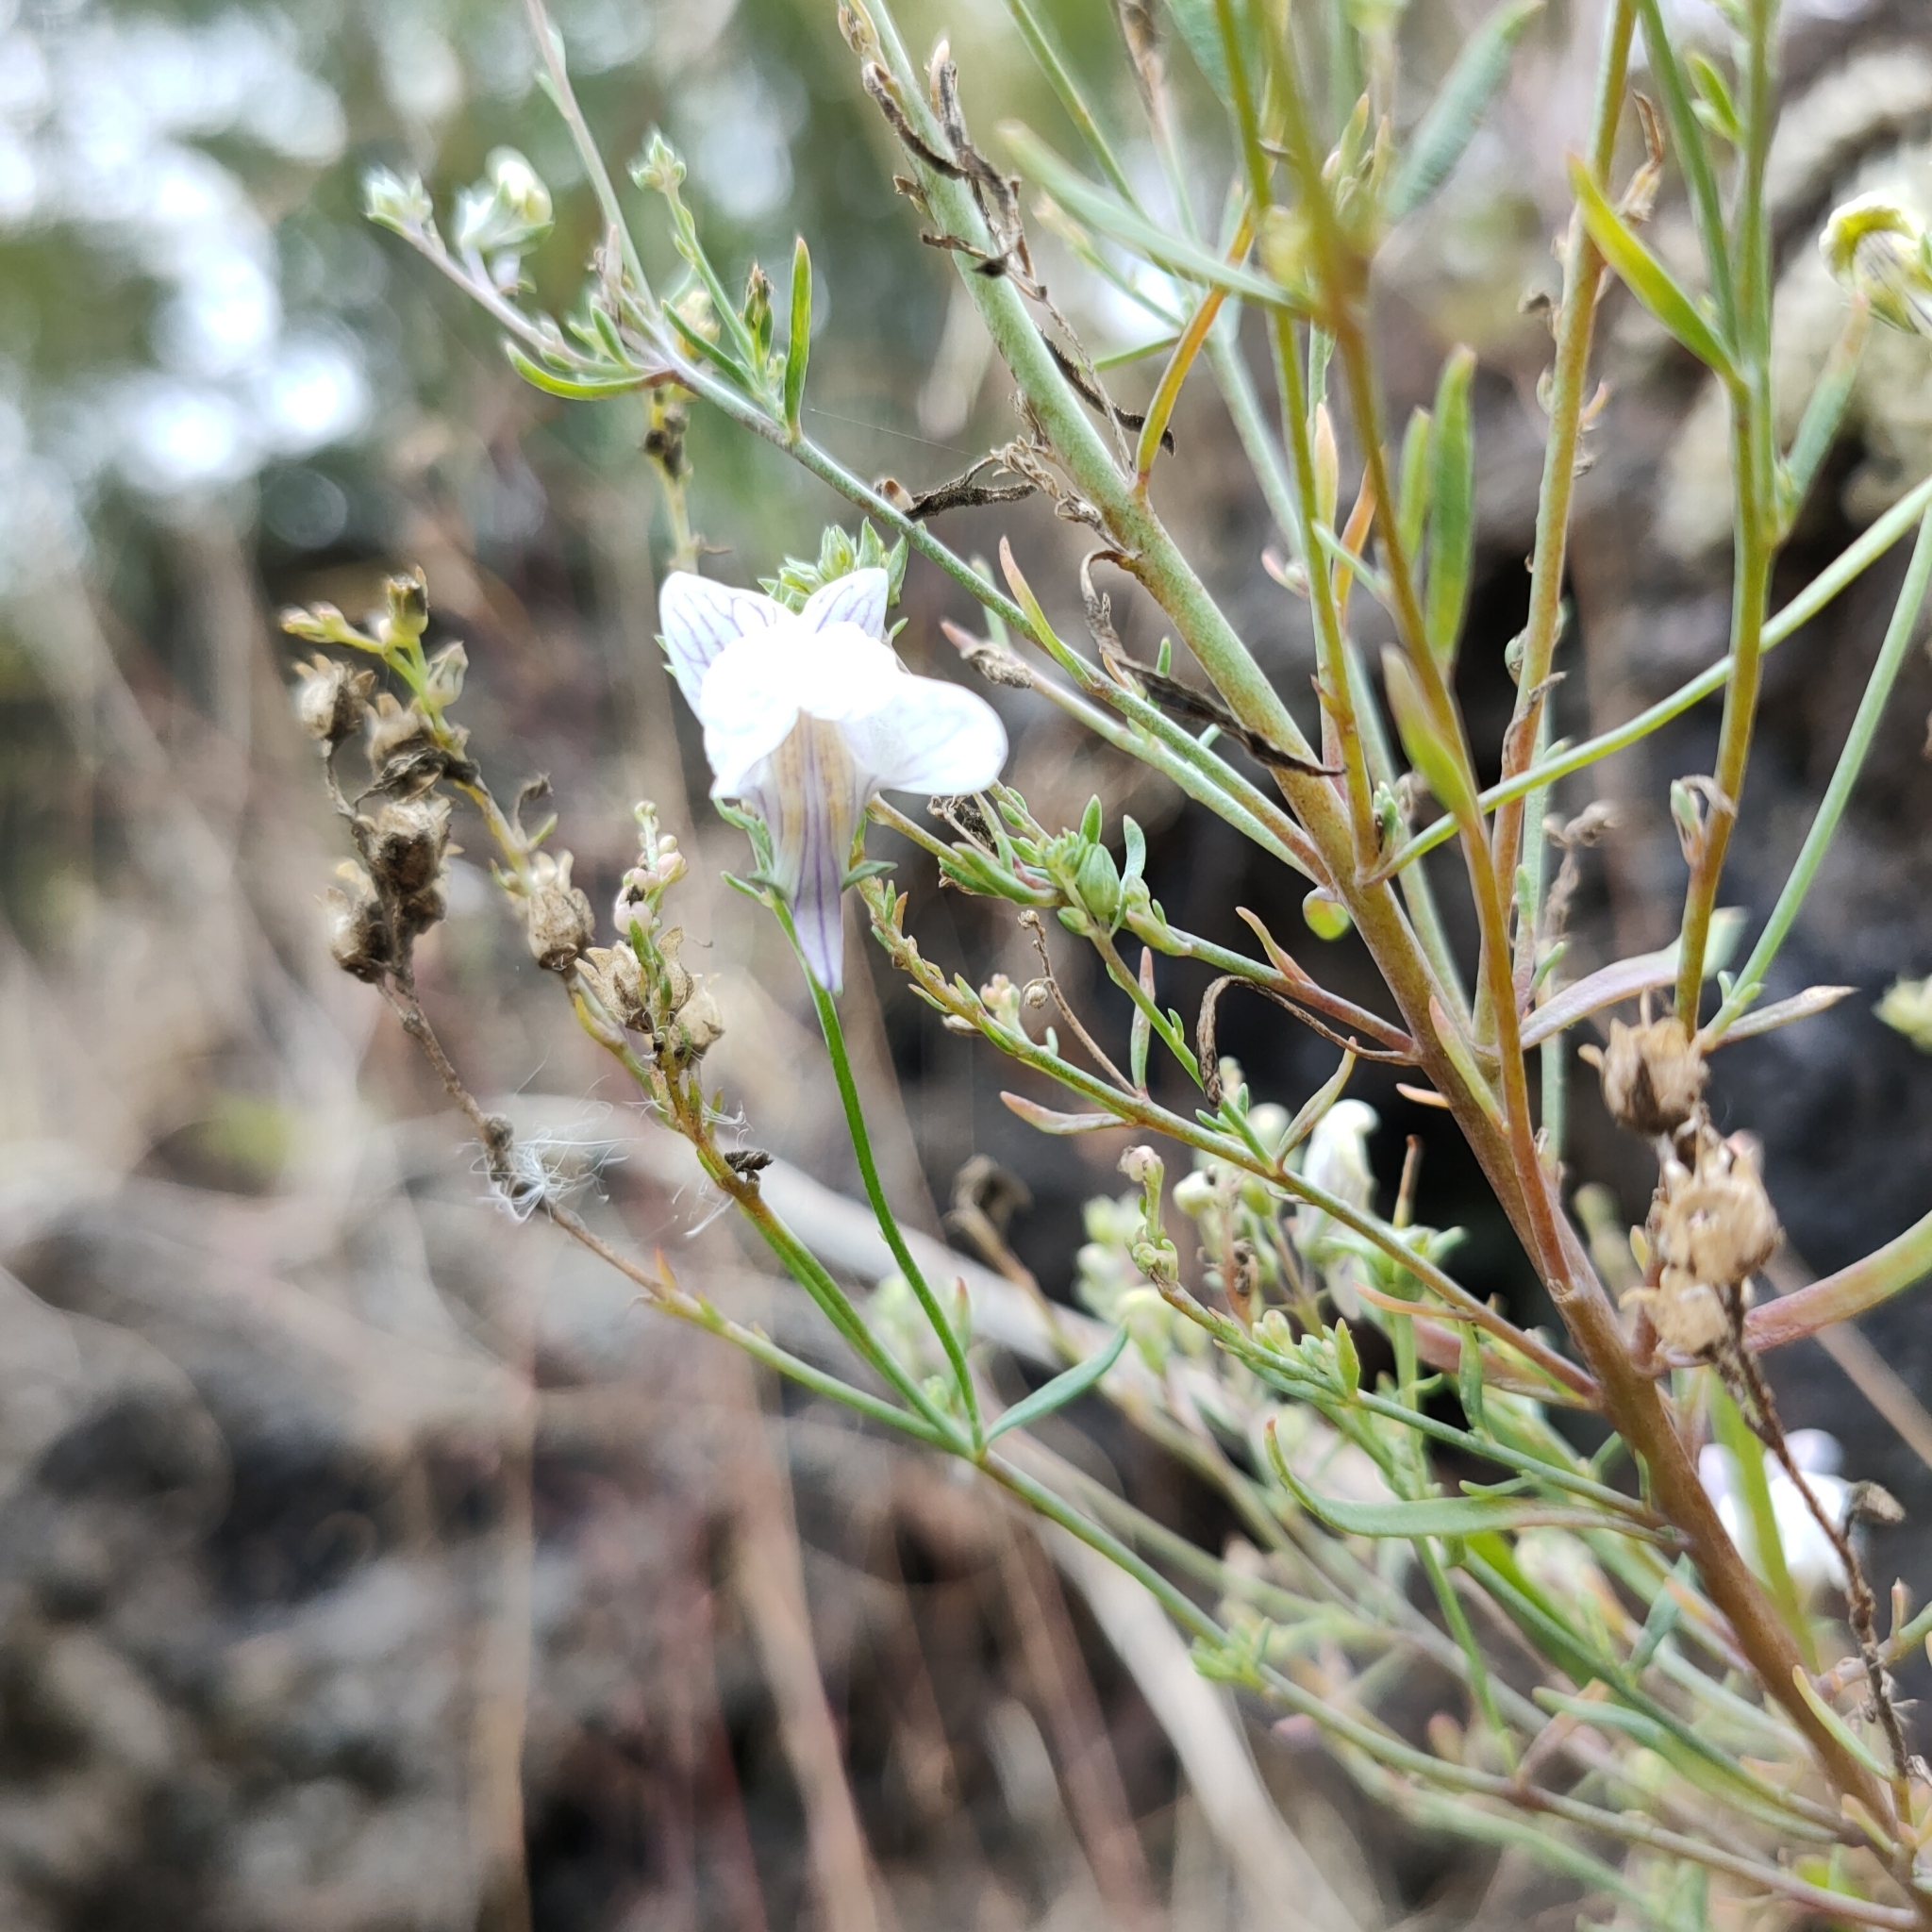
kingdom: Plantae
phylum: Tracheophyta
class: Magnoliopsida
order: Lamiales
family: Plantaginaceae
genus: Linaria
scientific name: Linaria repens
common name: Pale toadflax
